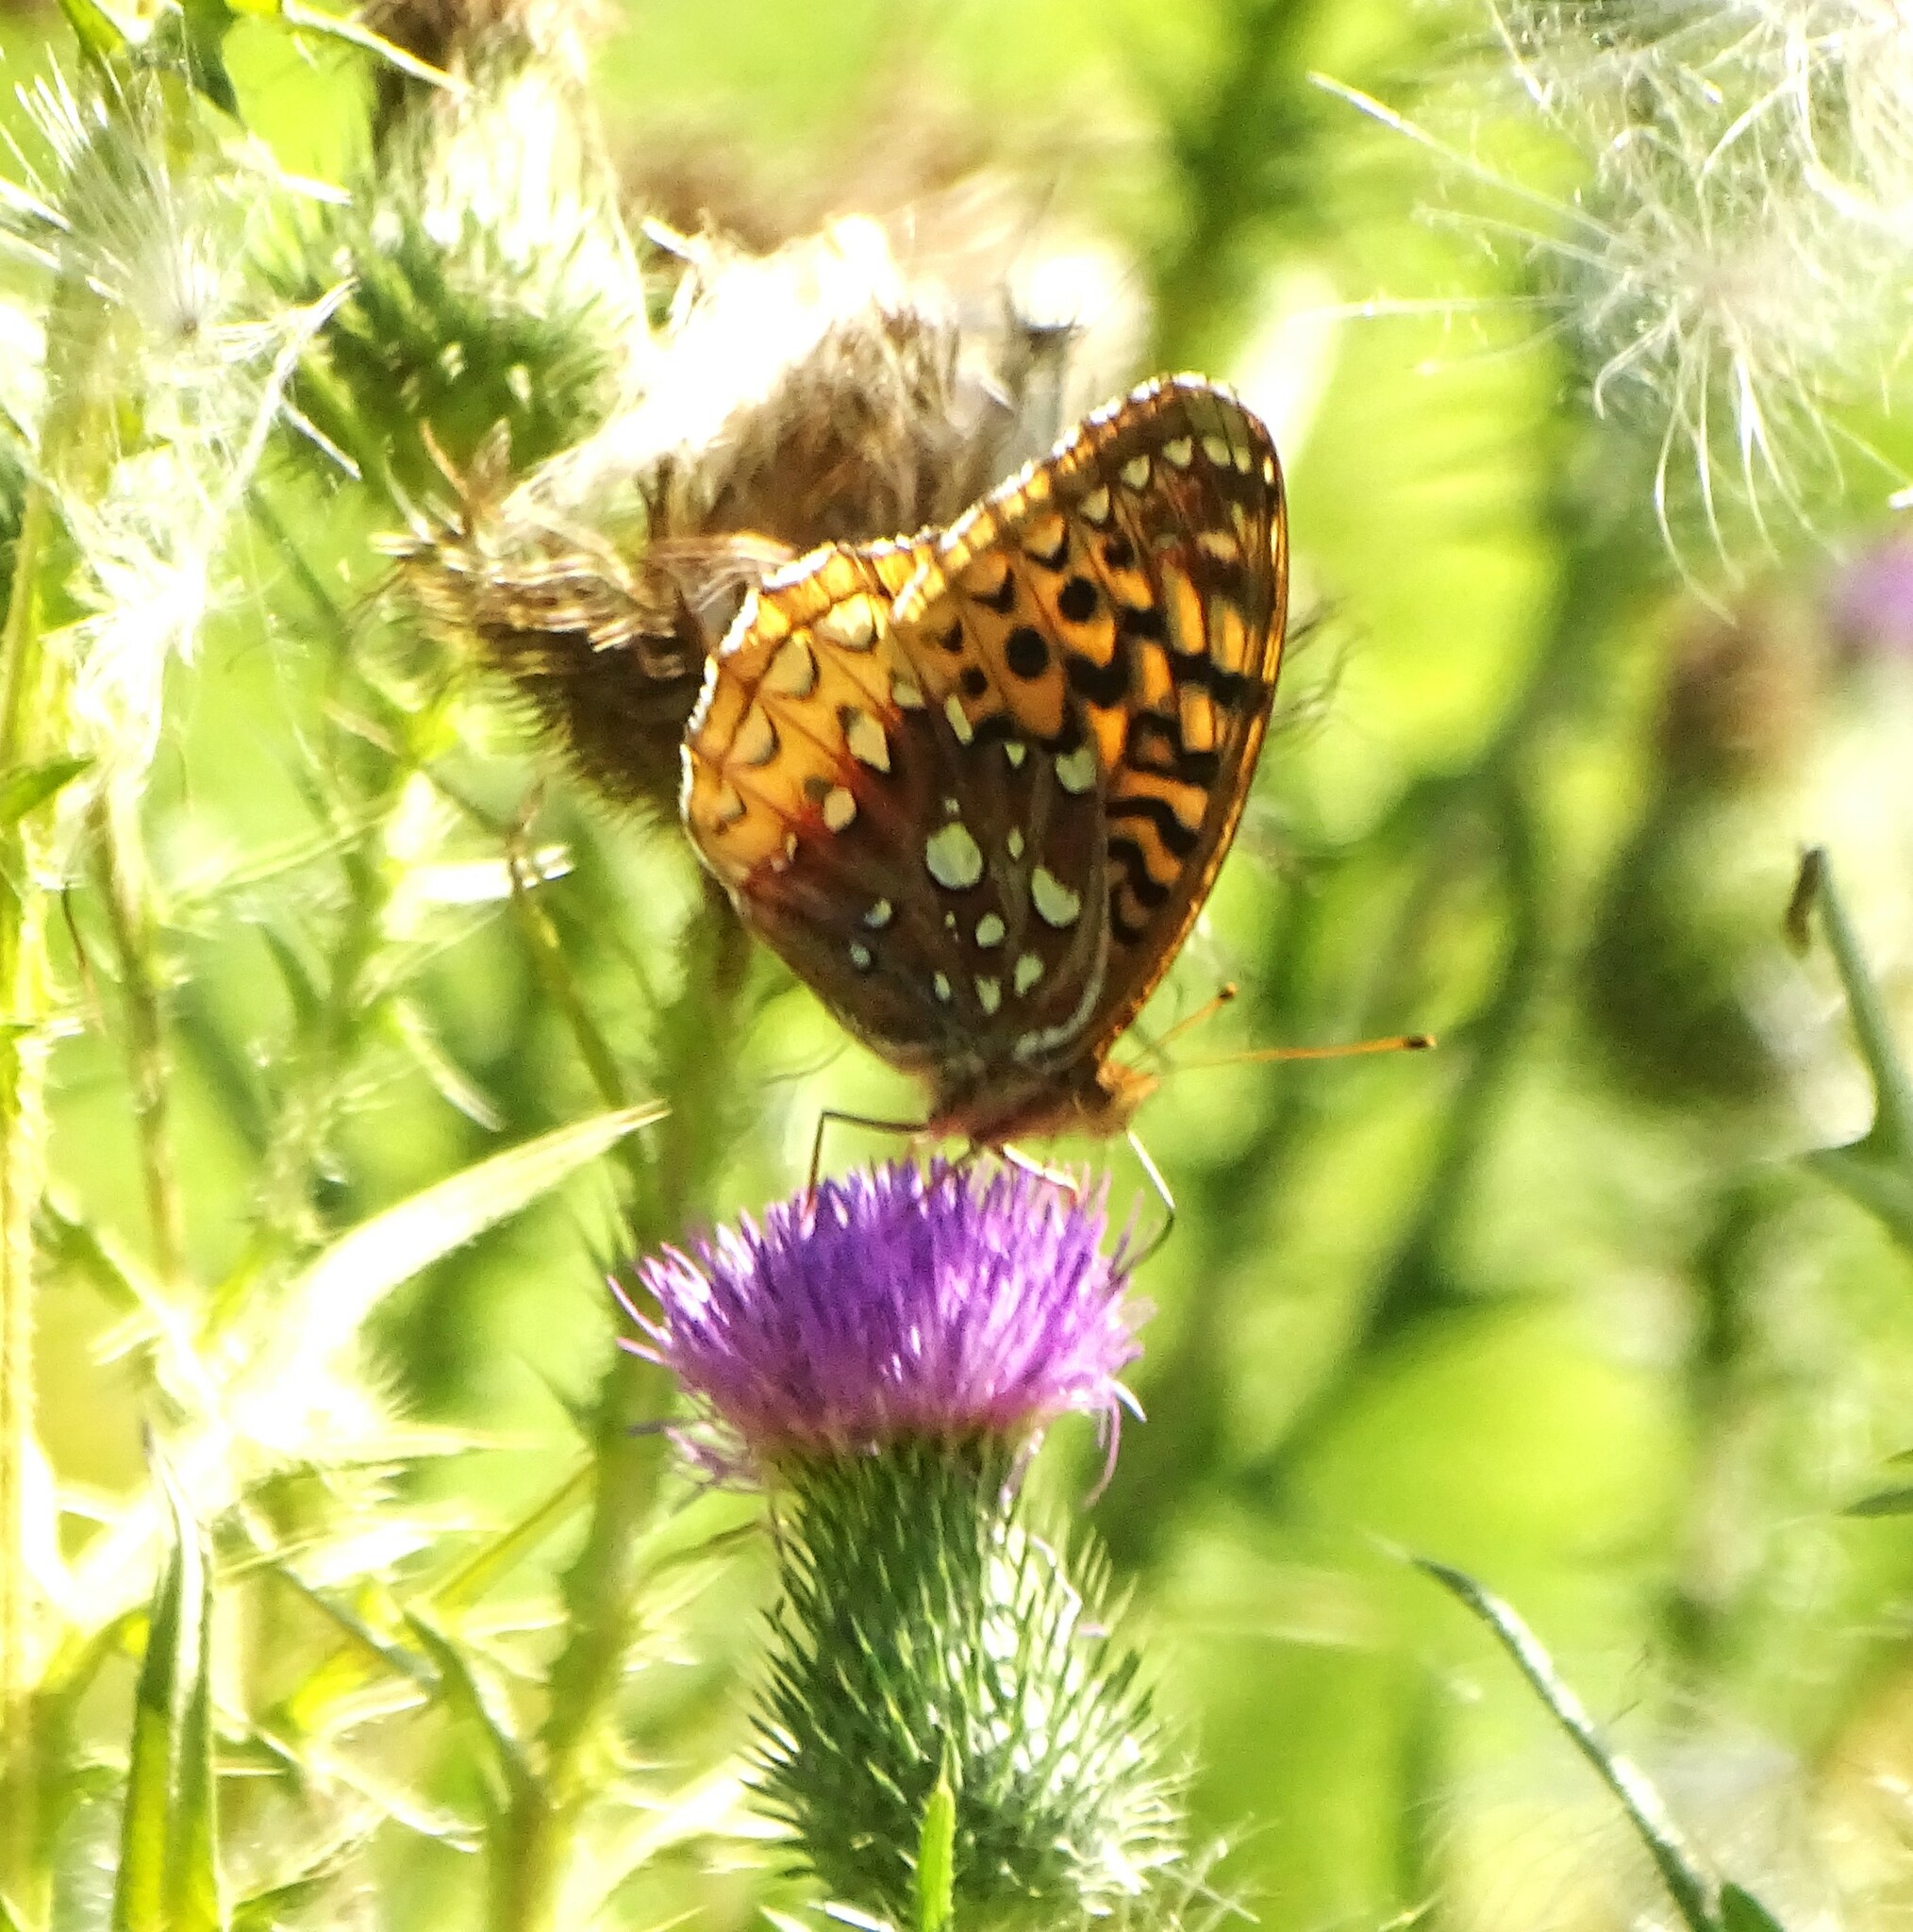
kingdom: Animalia
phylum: Arthropoda
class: Insecta
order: Lepidoptera
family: Nymphalidae
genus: Speyeria
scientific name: Speyeria cybele
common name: Great spangled fritillary
